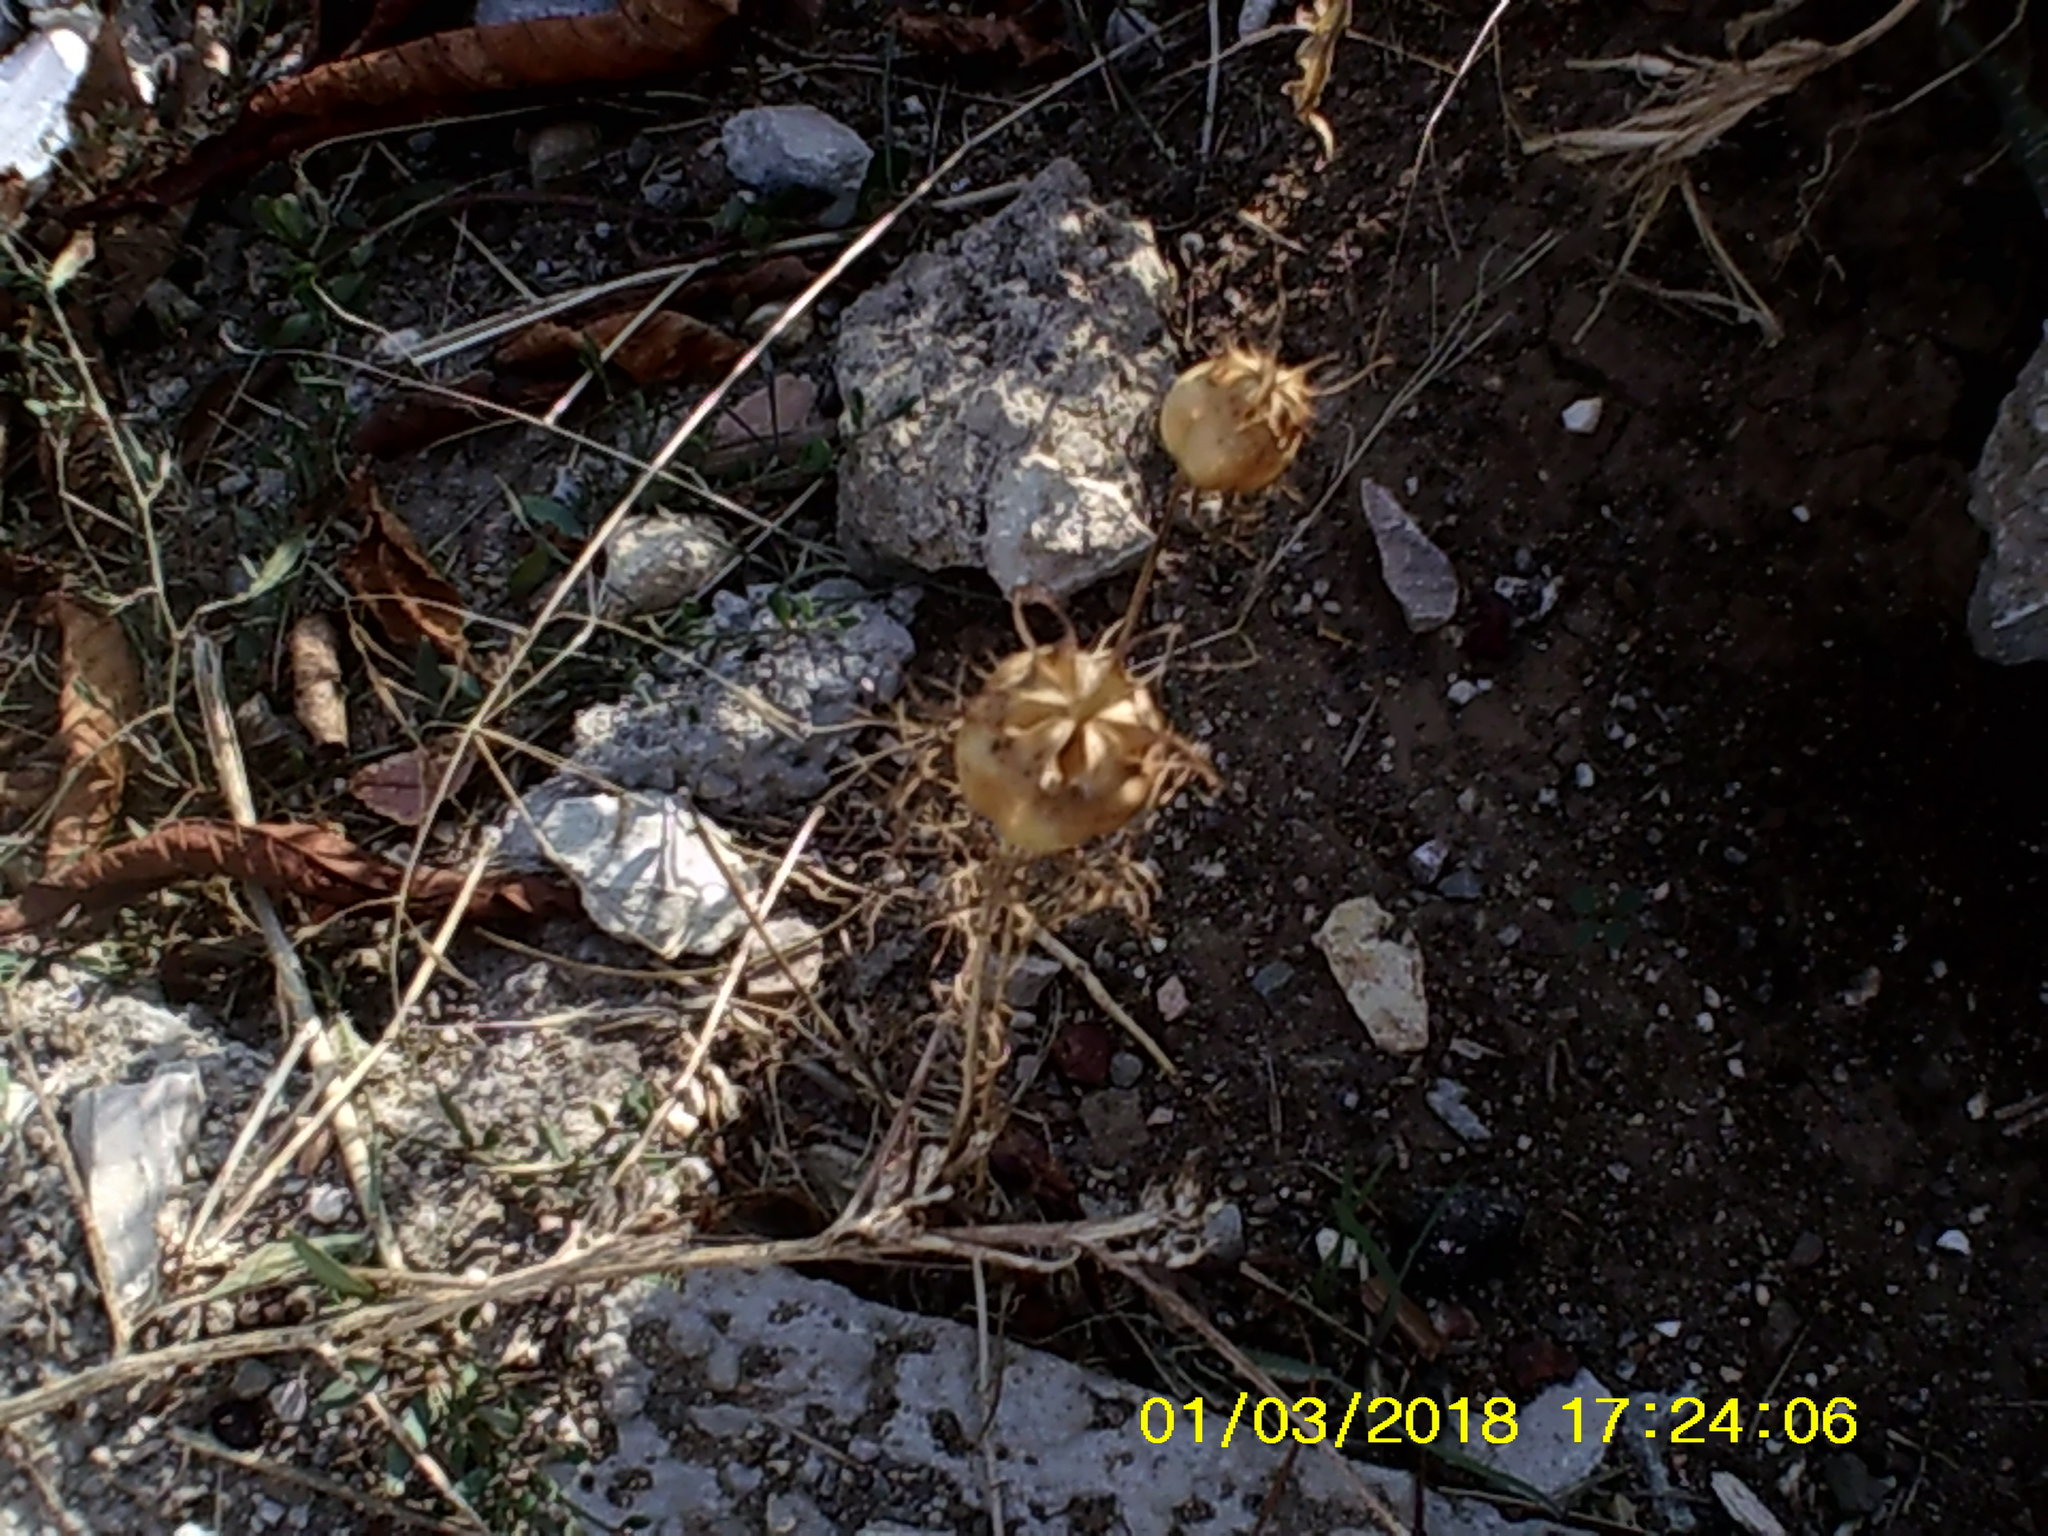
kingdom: Plantae
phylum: Tracheophyta
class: Magnoliopsida
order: Ranunculales
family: Ranunculaceae
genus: Nigella
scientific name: Nigella damascena
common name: Love-in-a-mist
